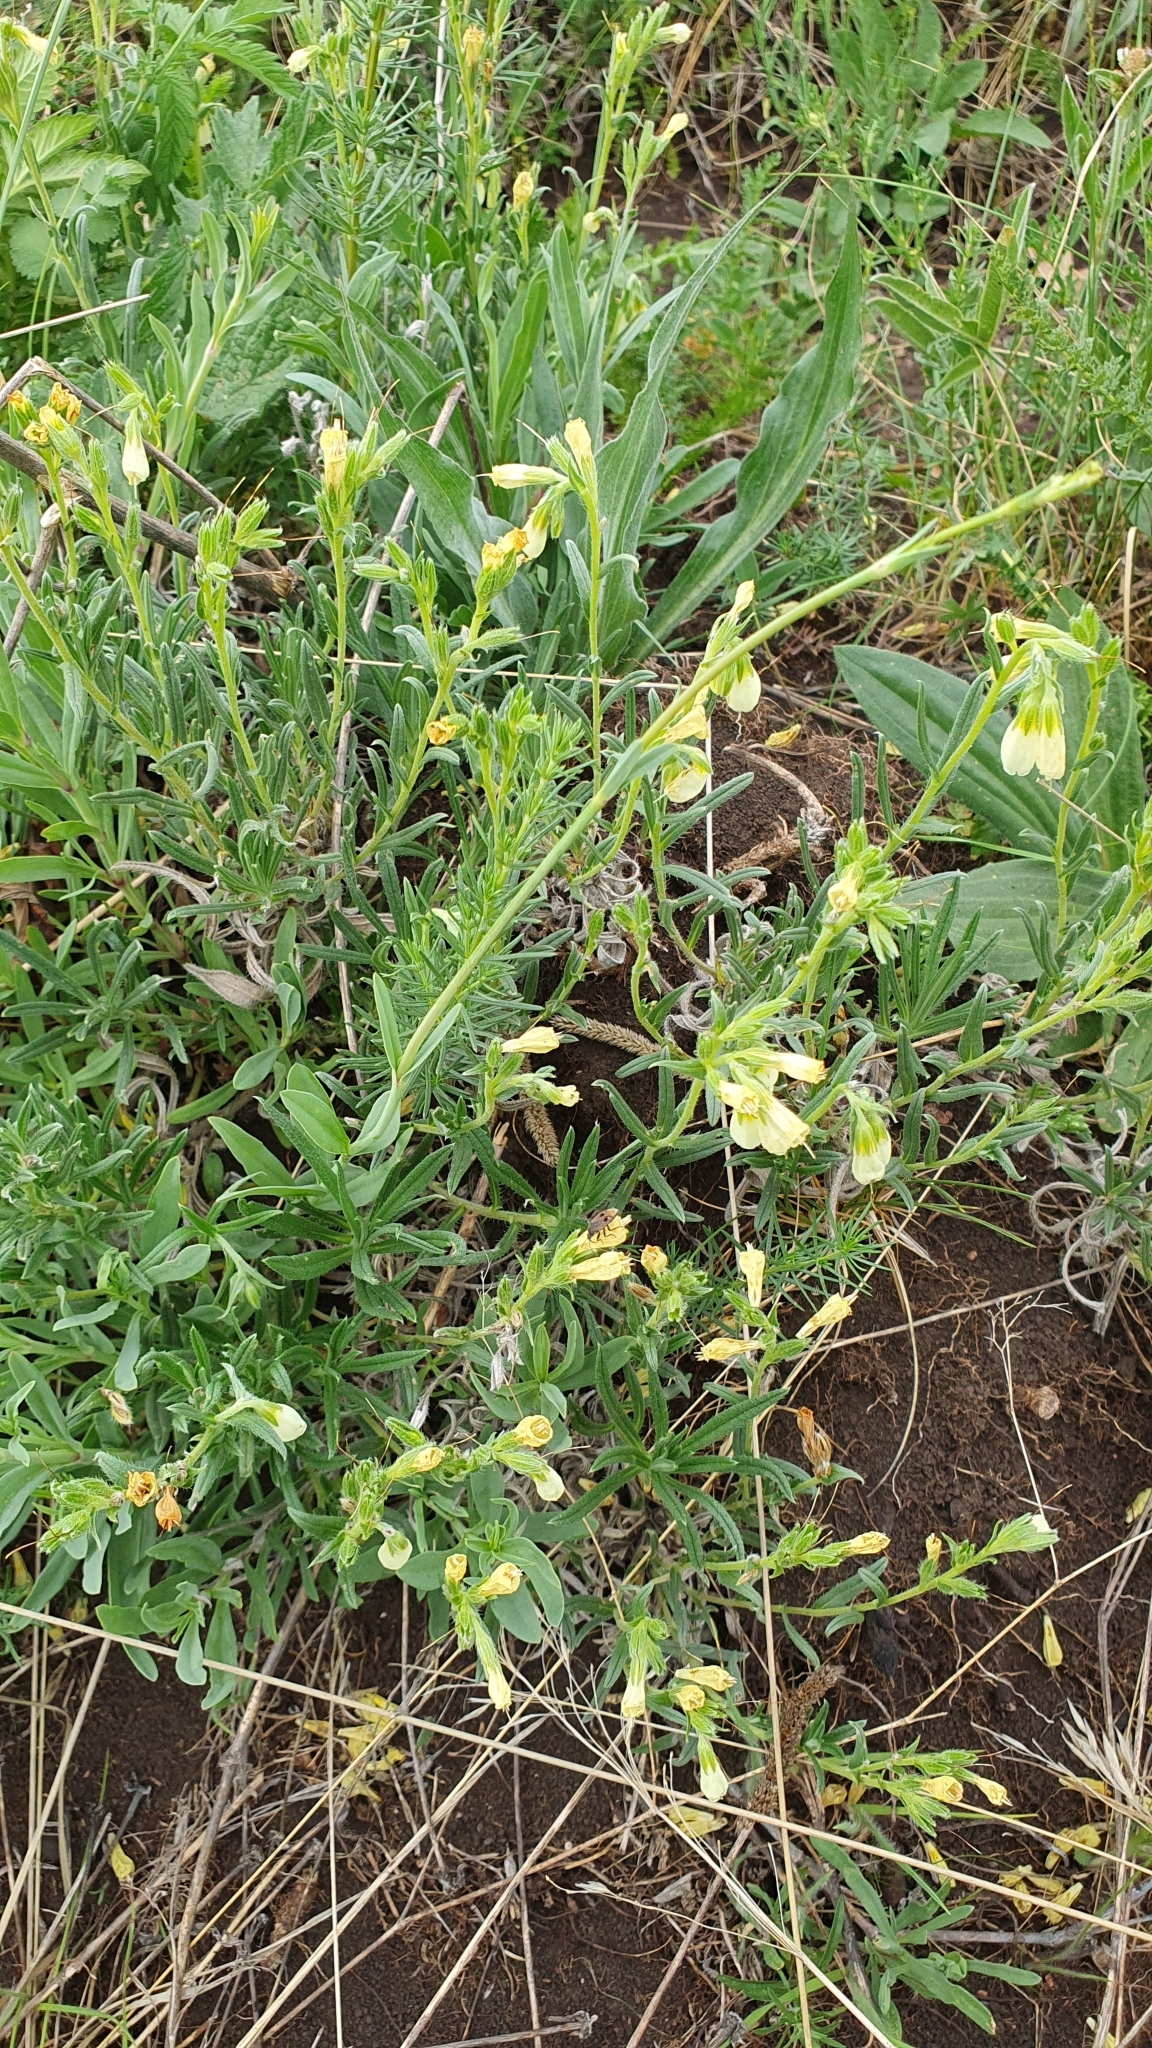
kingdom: Plantae
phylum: Tracheophyta
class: Magnoliopsida
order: Boraginales
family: Boraginaceae
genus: Onosma
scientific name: Onosma simplicissima
